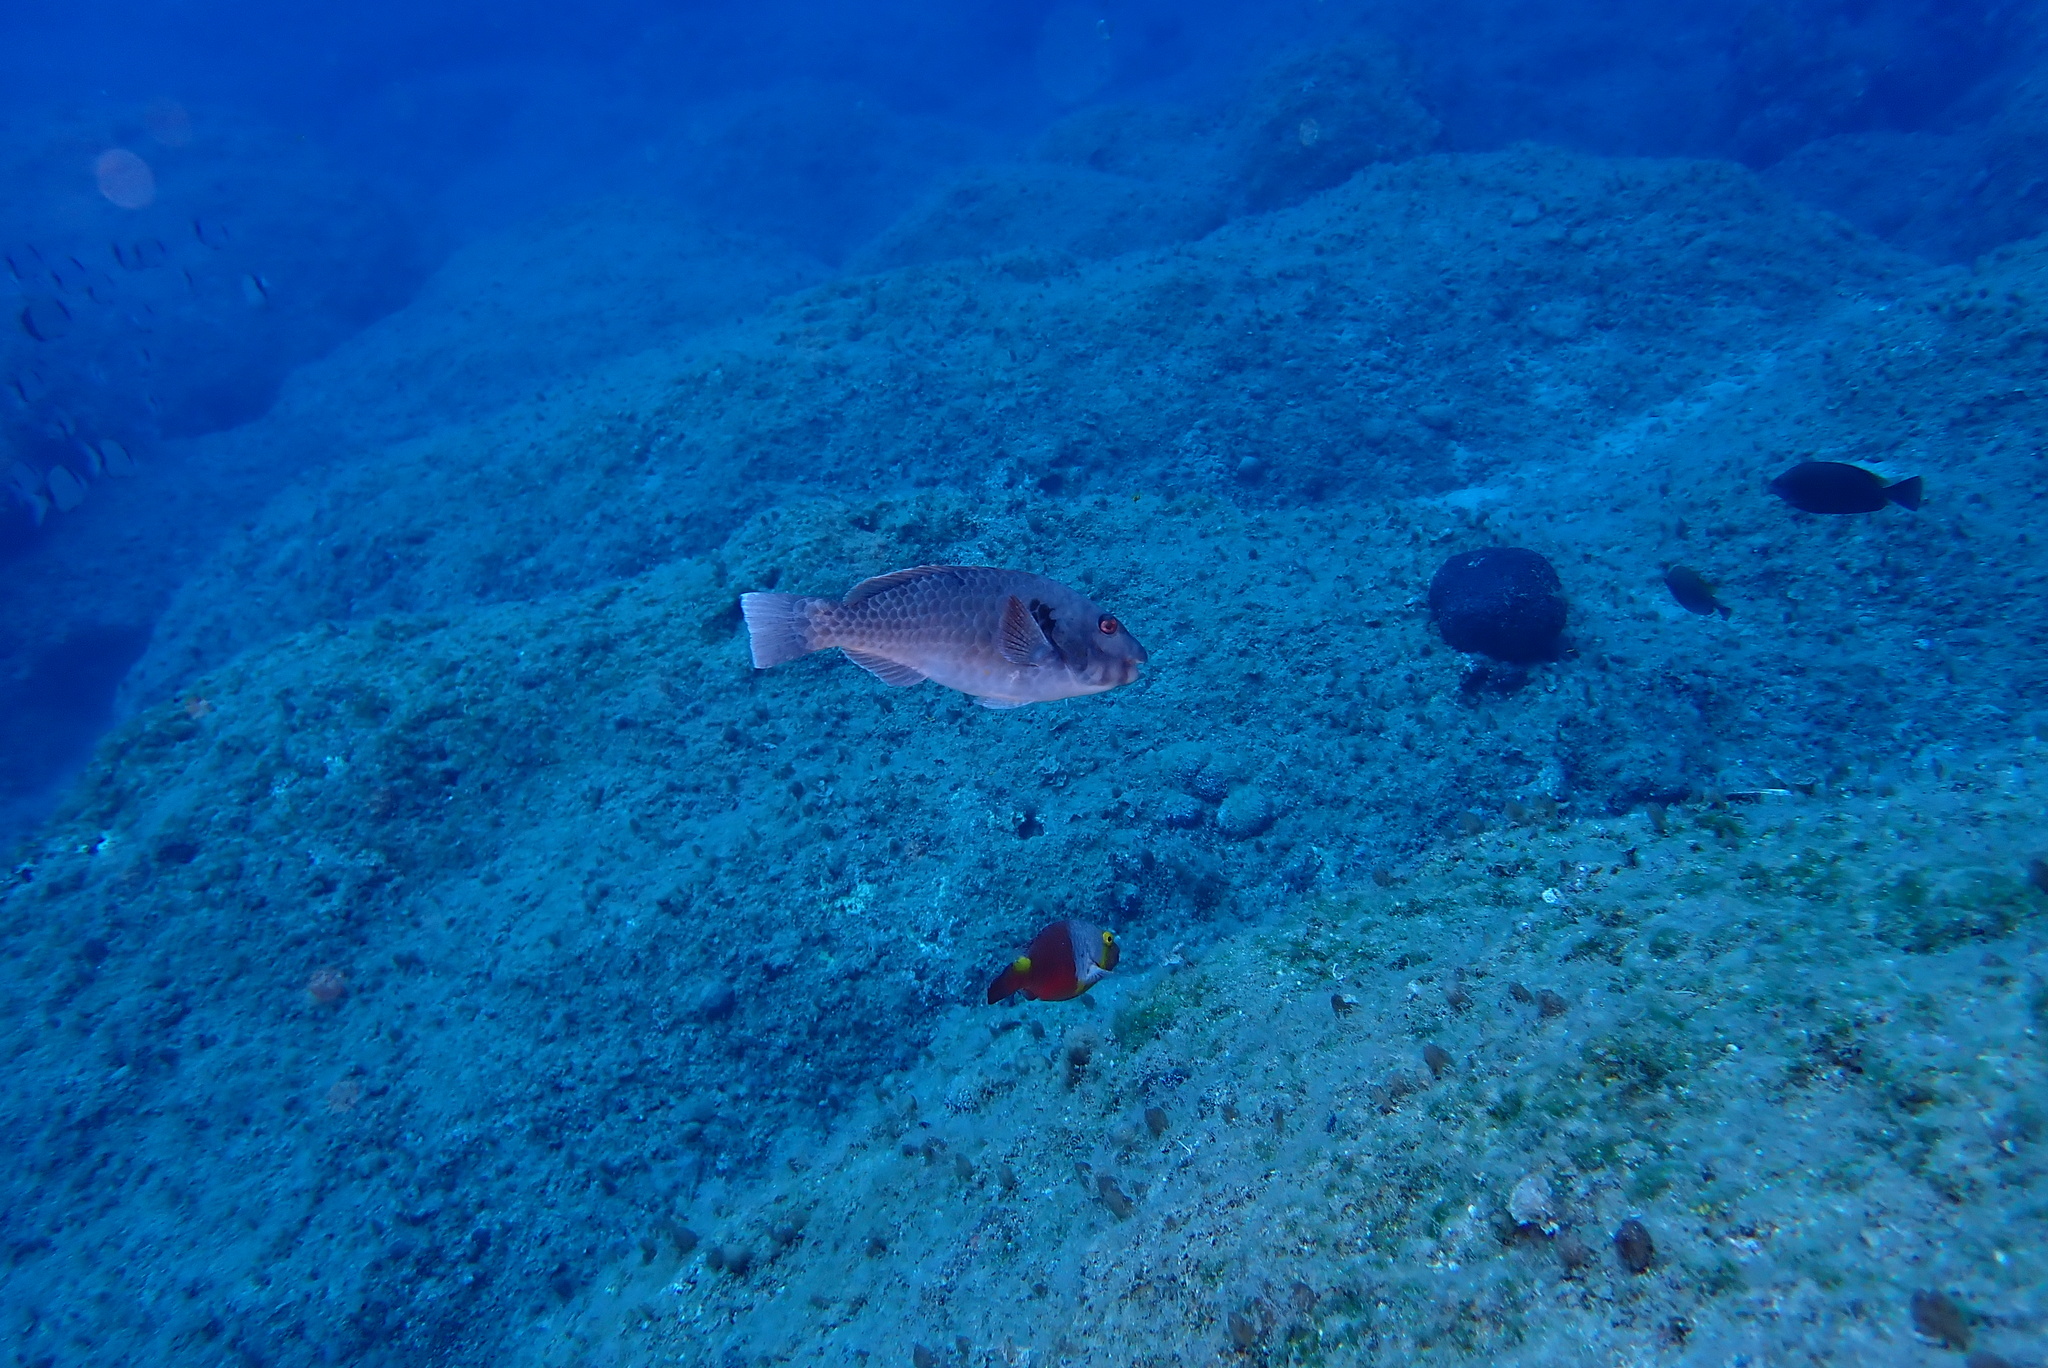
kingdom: Animalia
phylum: Chordata
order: Perciformes
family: Scaridae
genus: Sparisoma
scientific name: Sparisoma cretense
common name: Parrotfish
